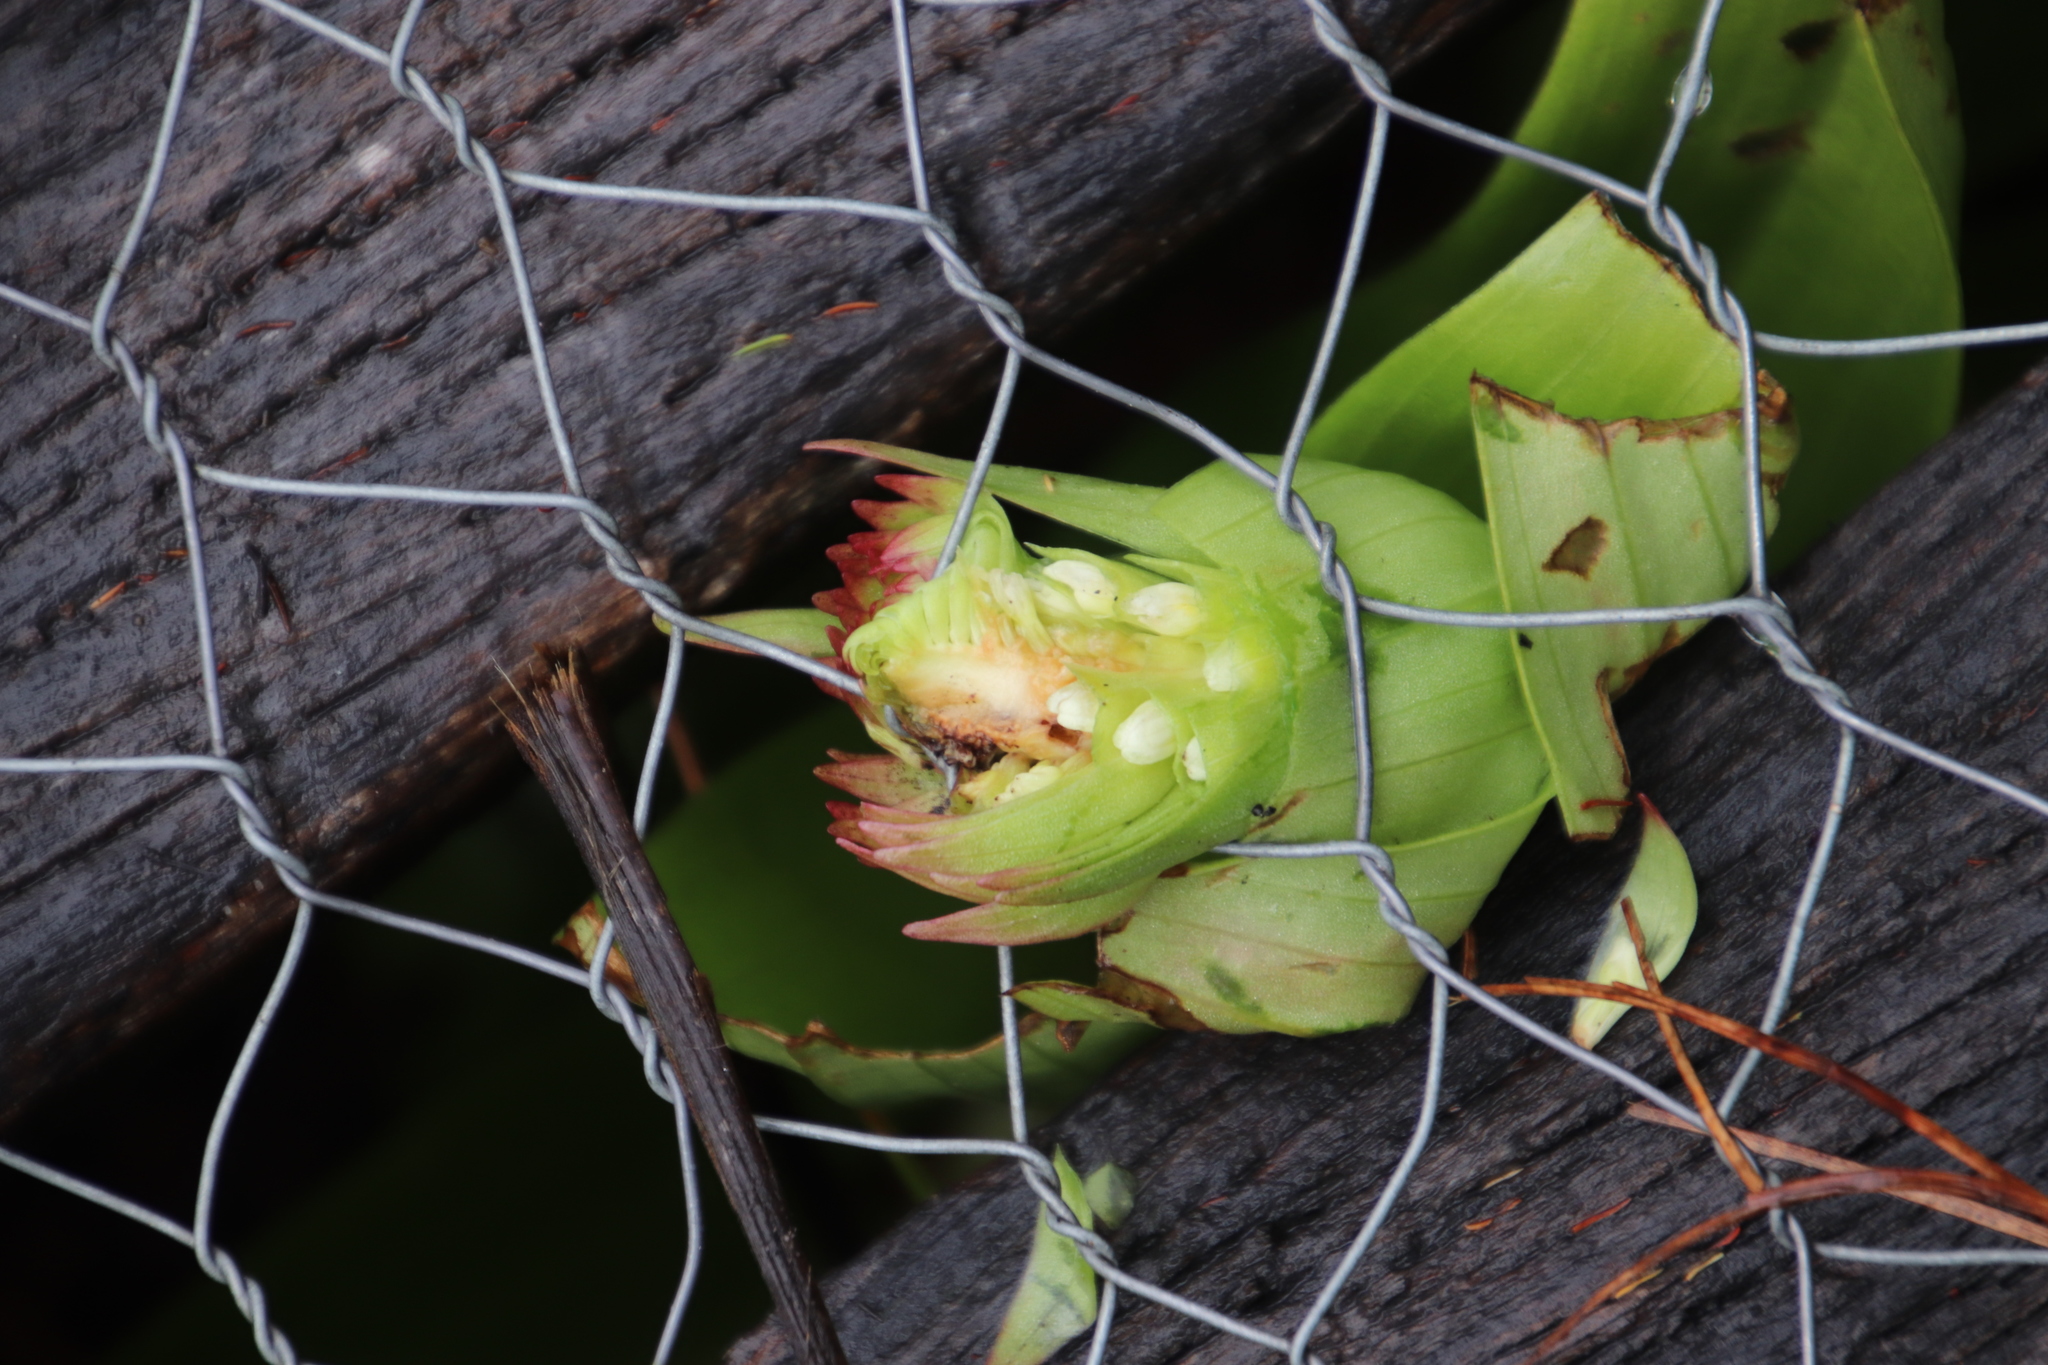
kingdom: Plantae
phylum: Tracheophyta
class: Liliopsida
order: Asparagales
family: Orchidaceae
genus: Satyrium
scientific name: Satyrium hallackii
